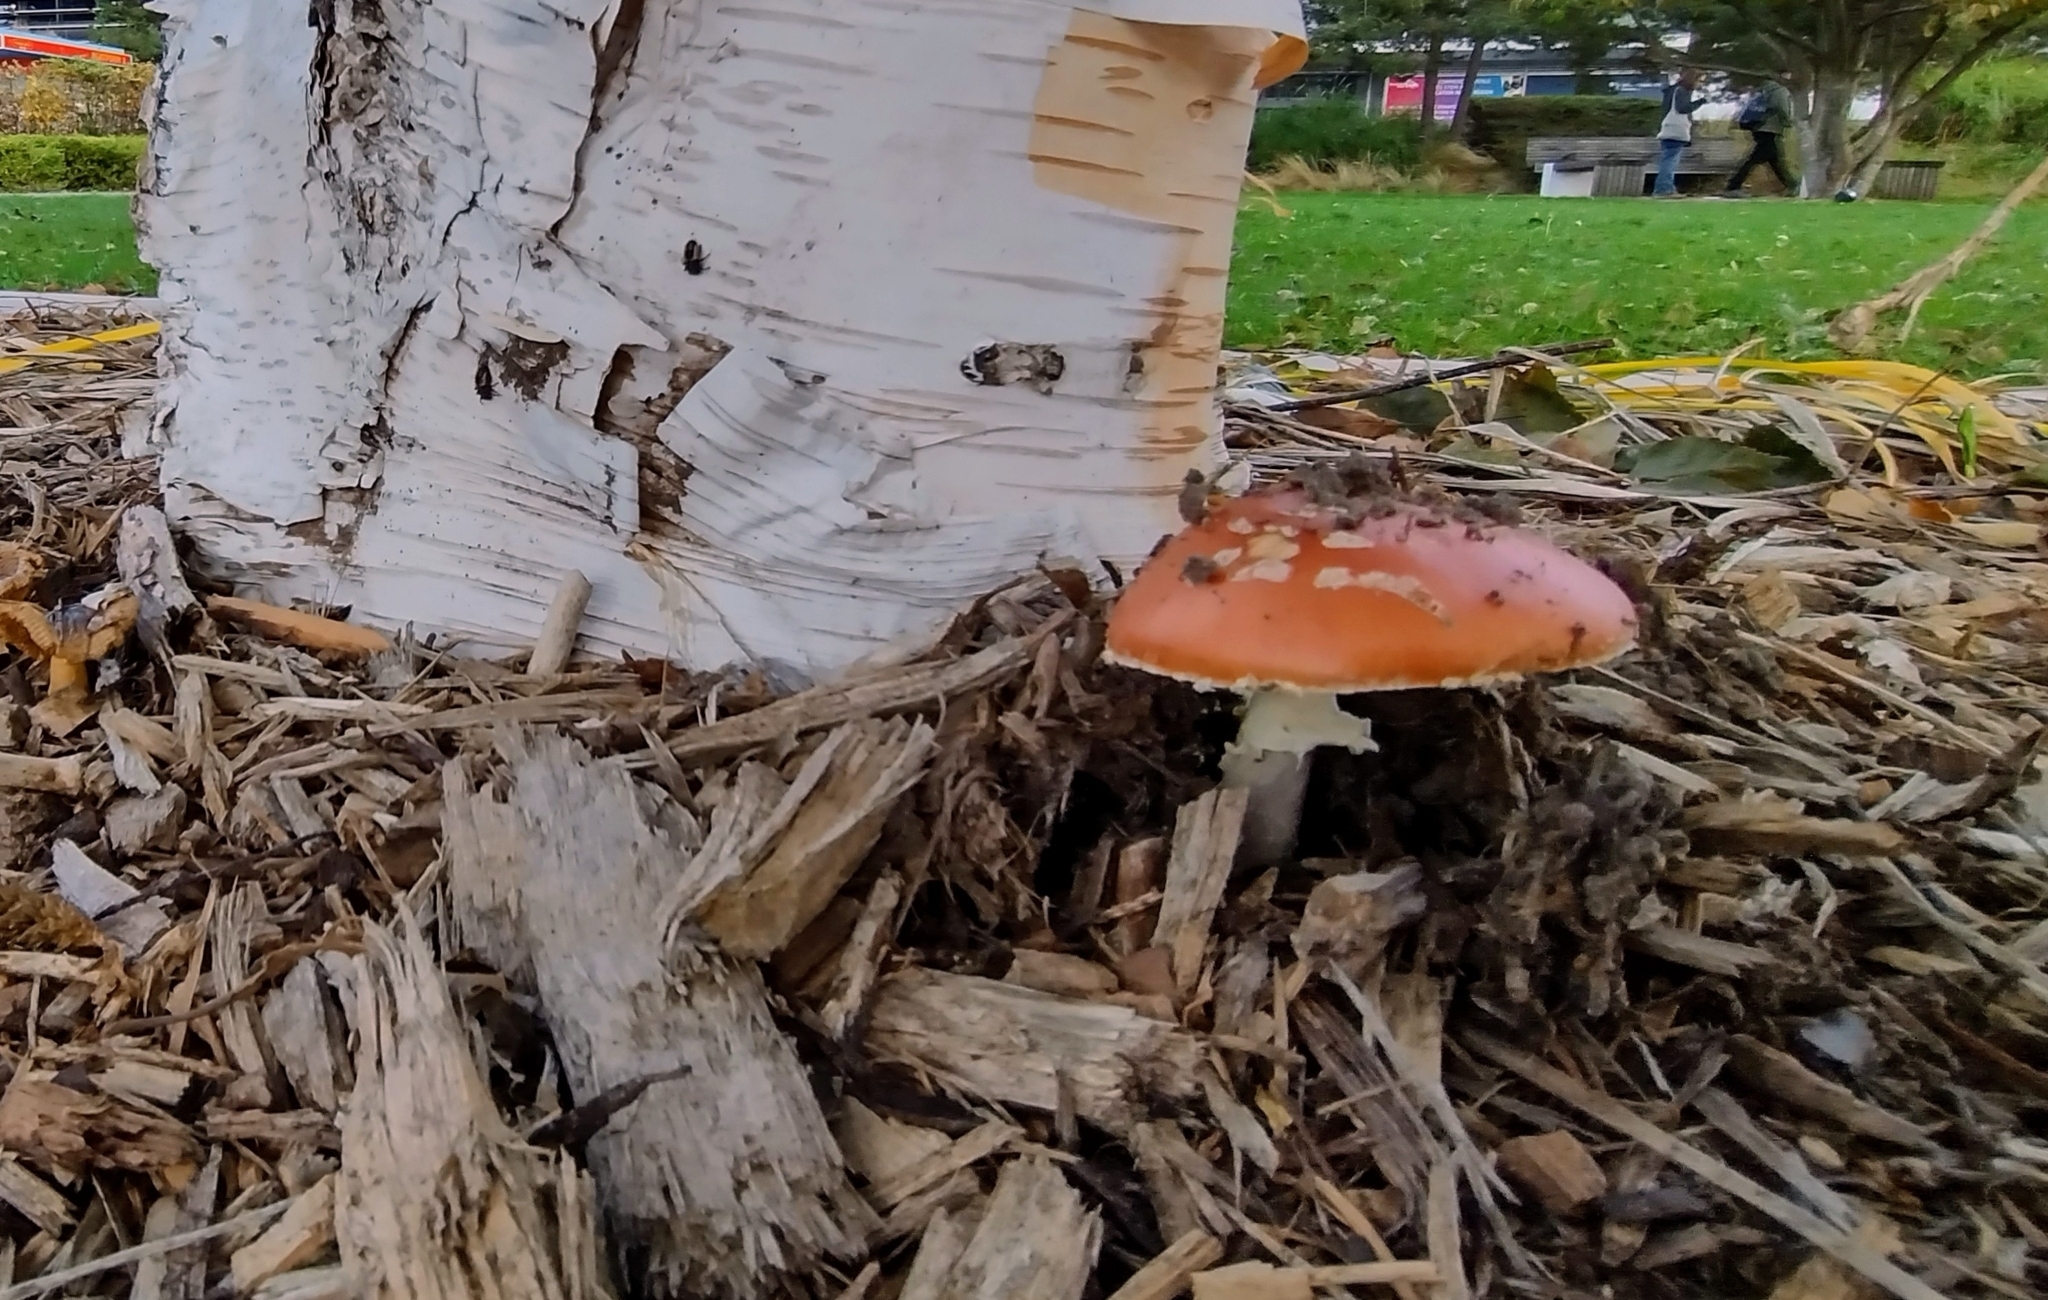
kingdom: Fungi
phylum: Basidiomycota
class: Agaricomycetes
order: Agaricales
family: Amanitaceae
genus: Amanita
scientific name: Amanita muscaria
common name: Fly agaric
